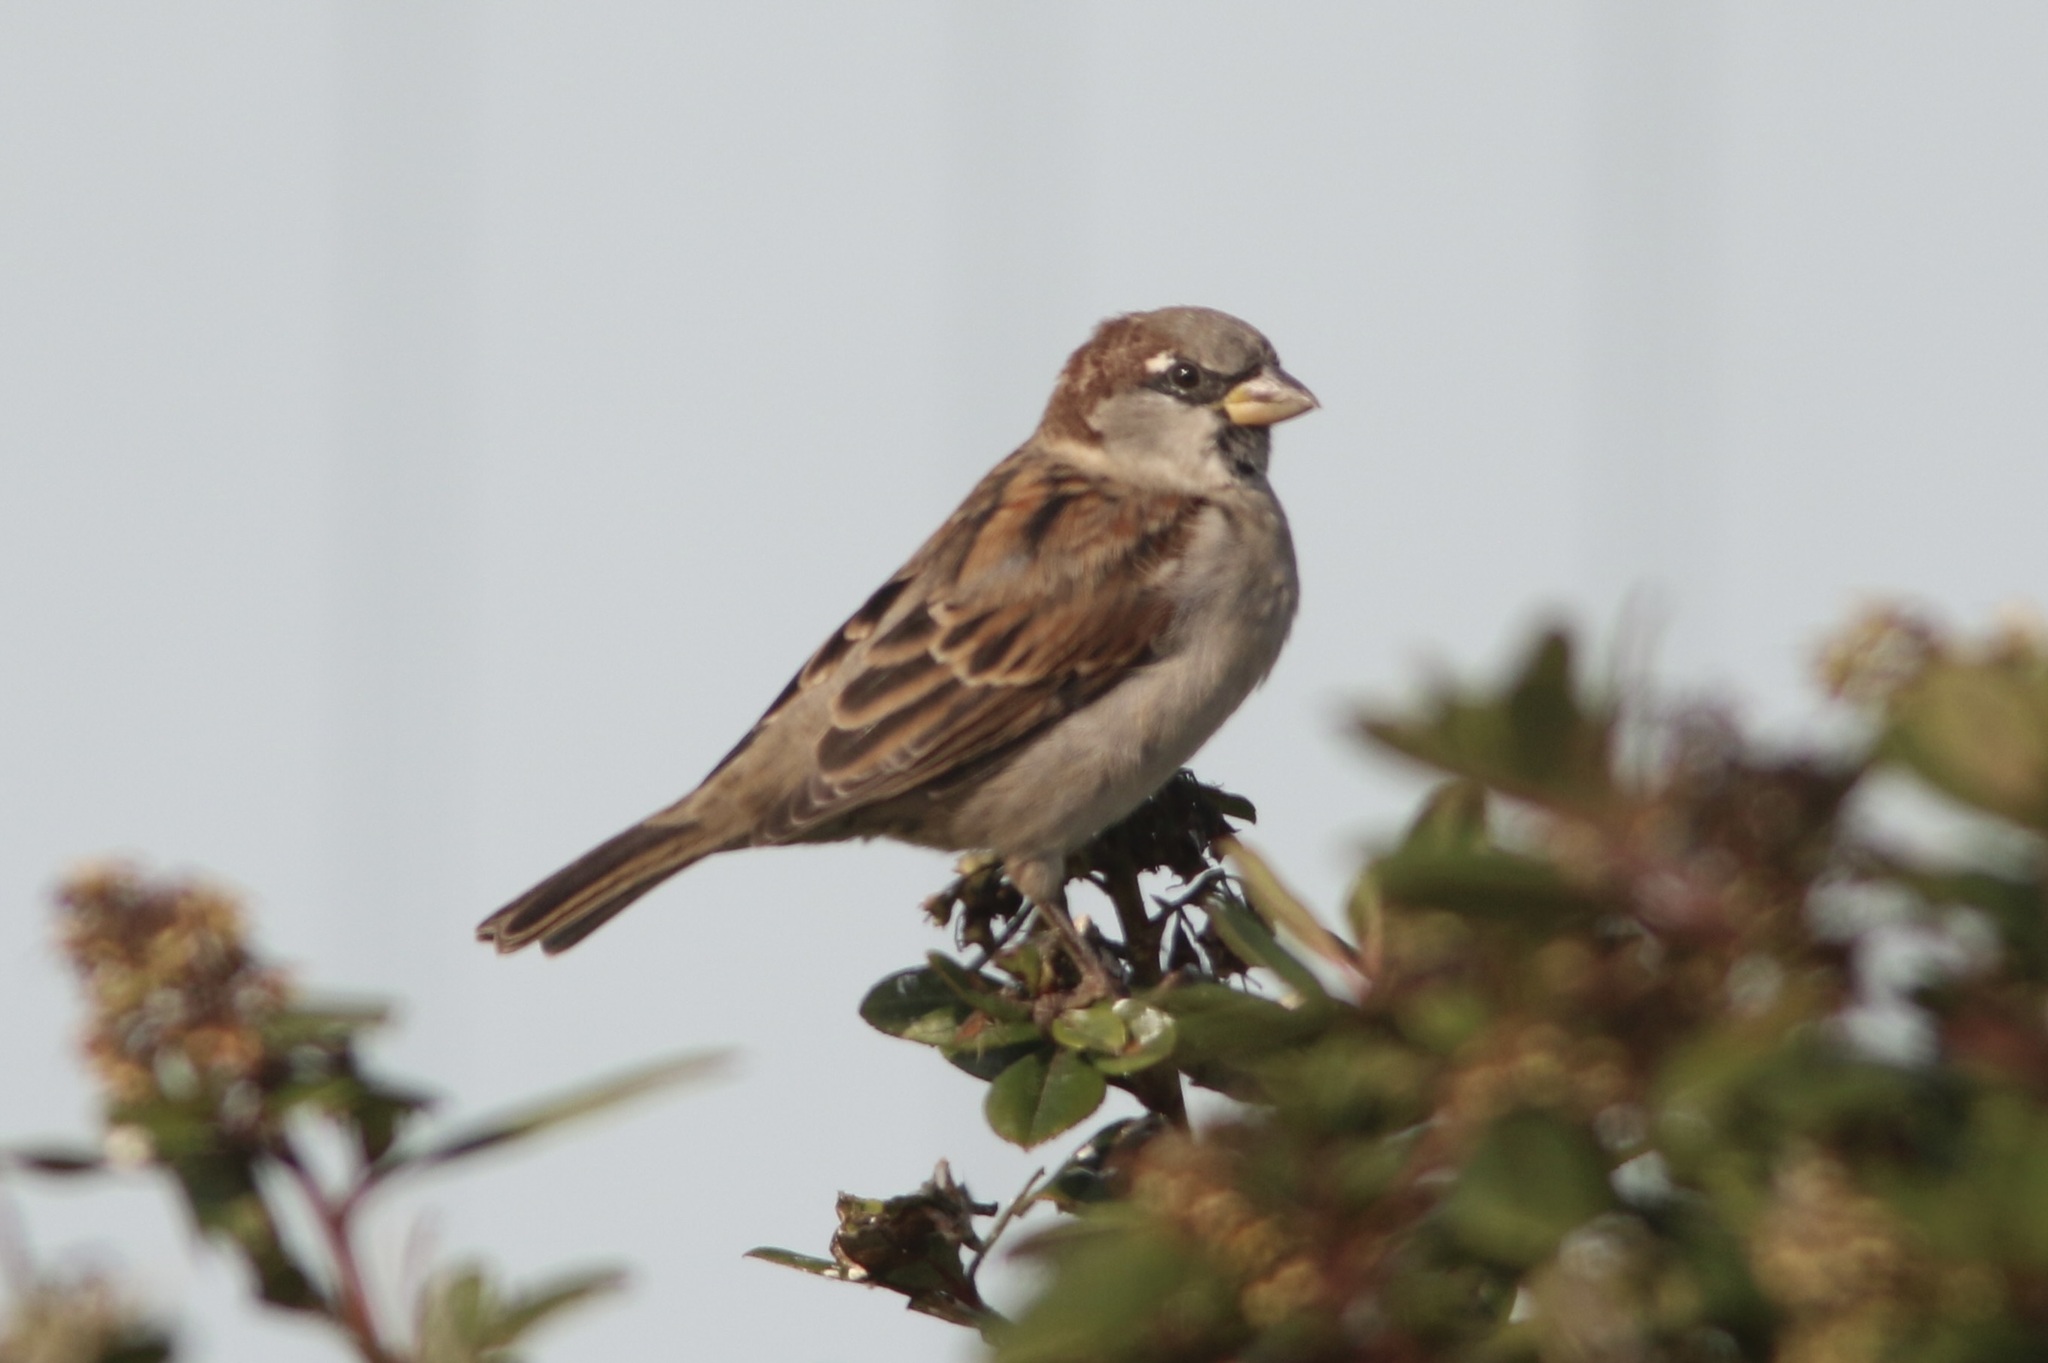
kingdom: Animalia
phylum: Chordata
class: Aves
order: Passeriformes
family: Passeridae
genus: Passer
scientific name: Passer domesticus
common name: House sparrow
